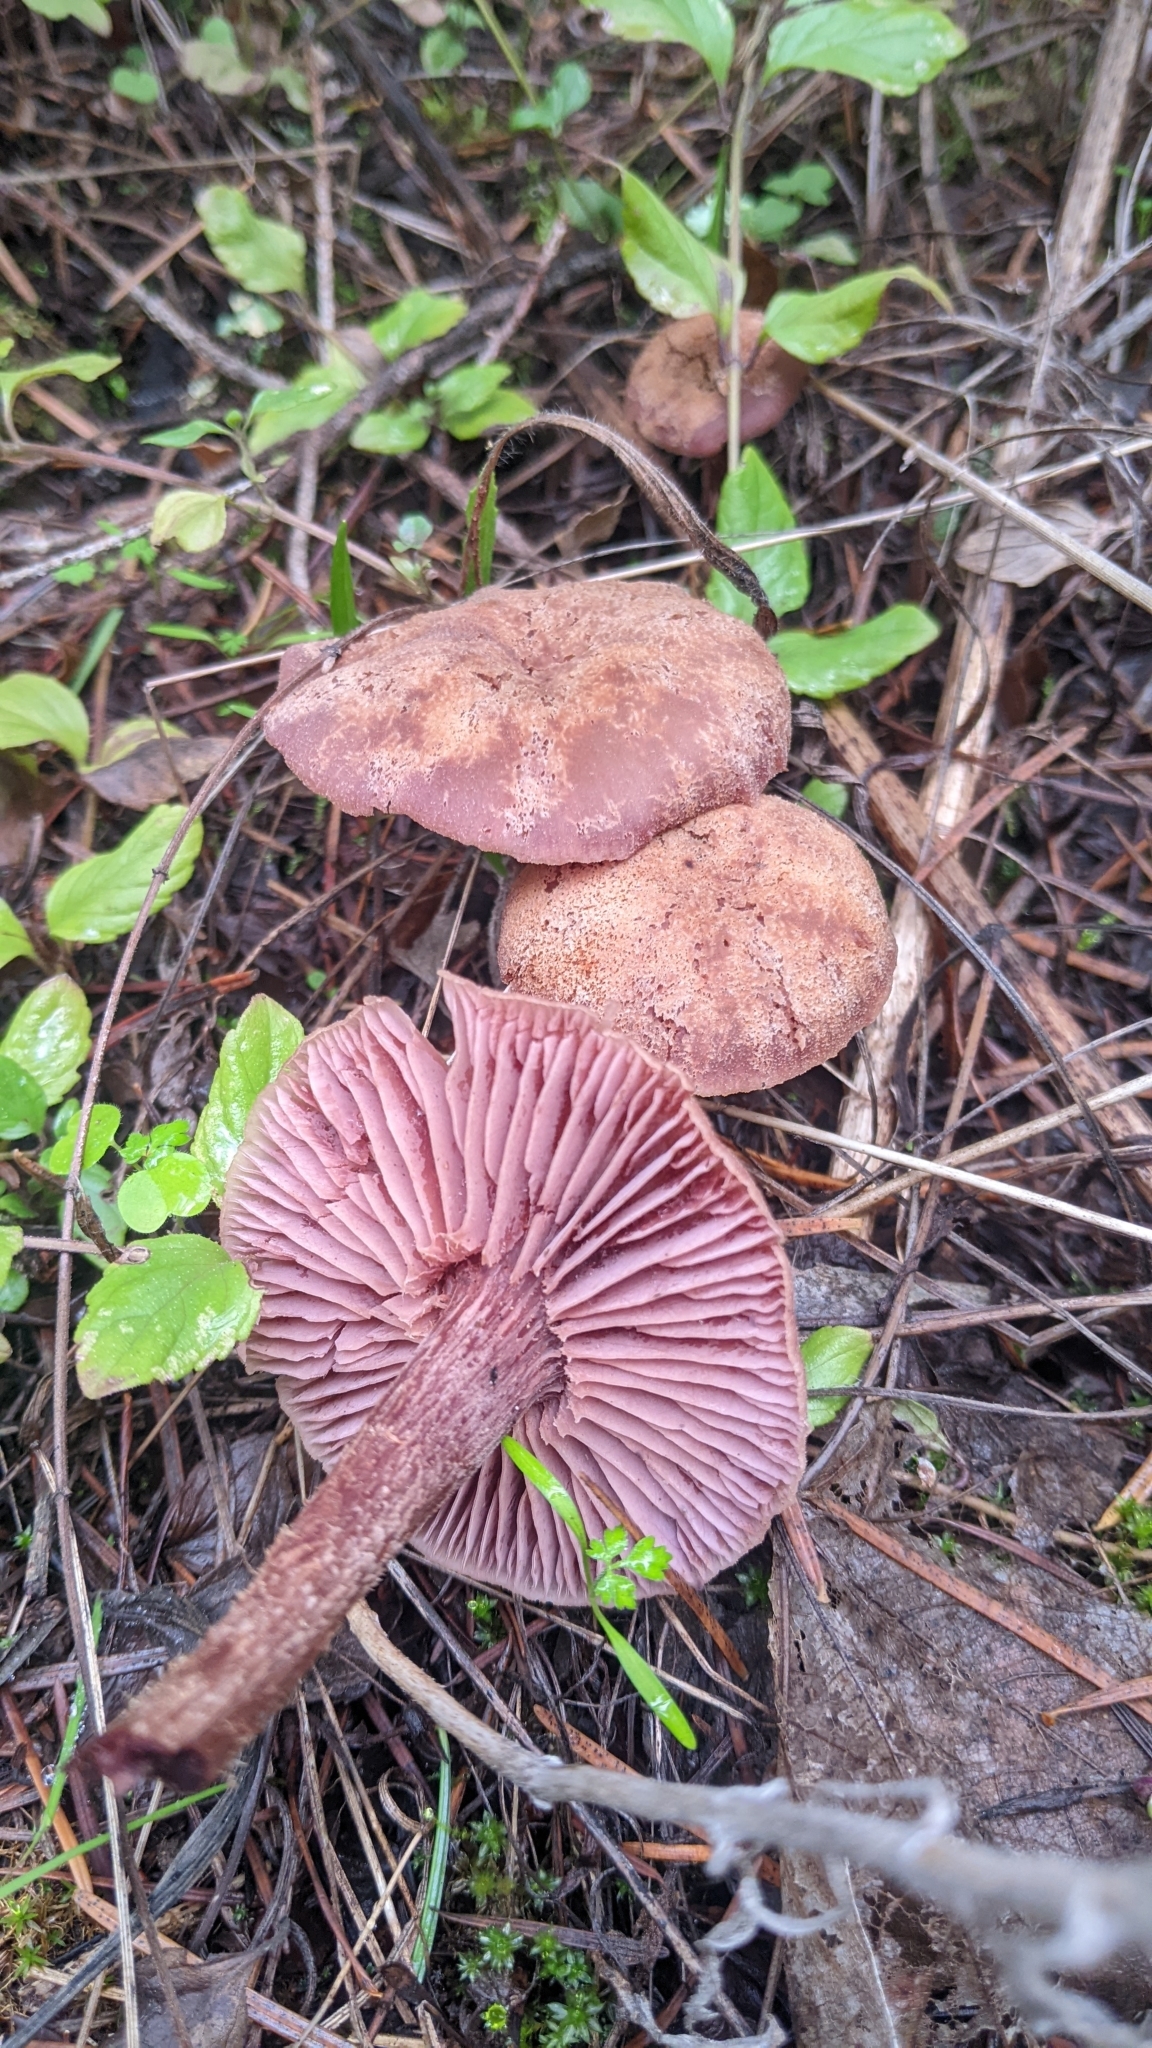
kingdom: Fungi
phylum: Basidiomycota
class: Agaricomycetes
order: Agaricales
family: Hydnangiaceae
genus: Laccaria
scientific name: Laccaria amethysteo-occidentalis
